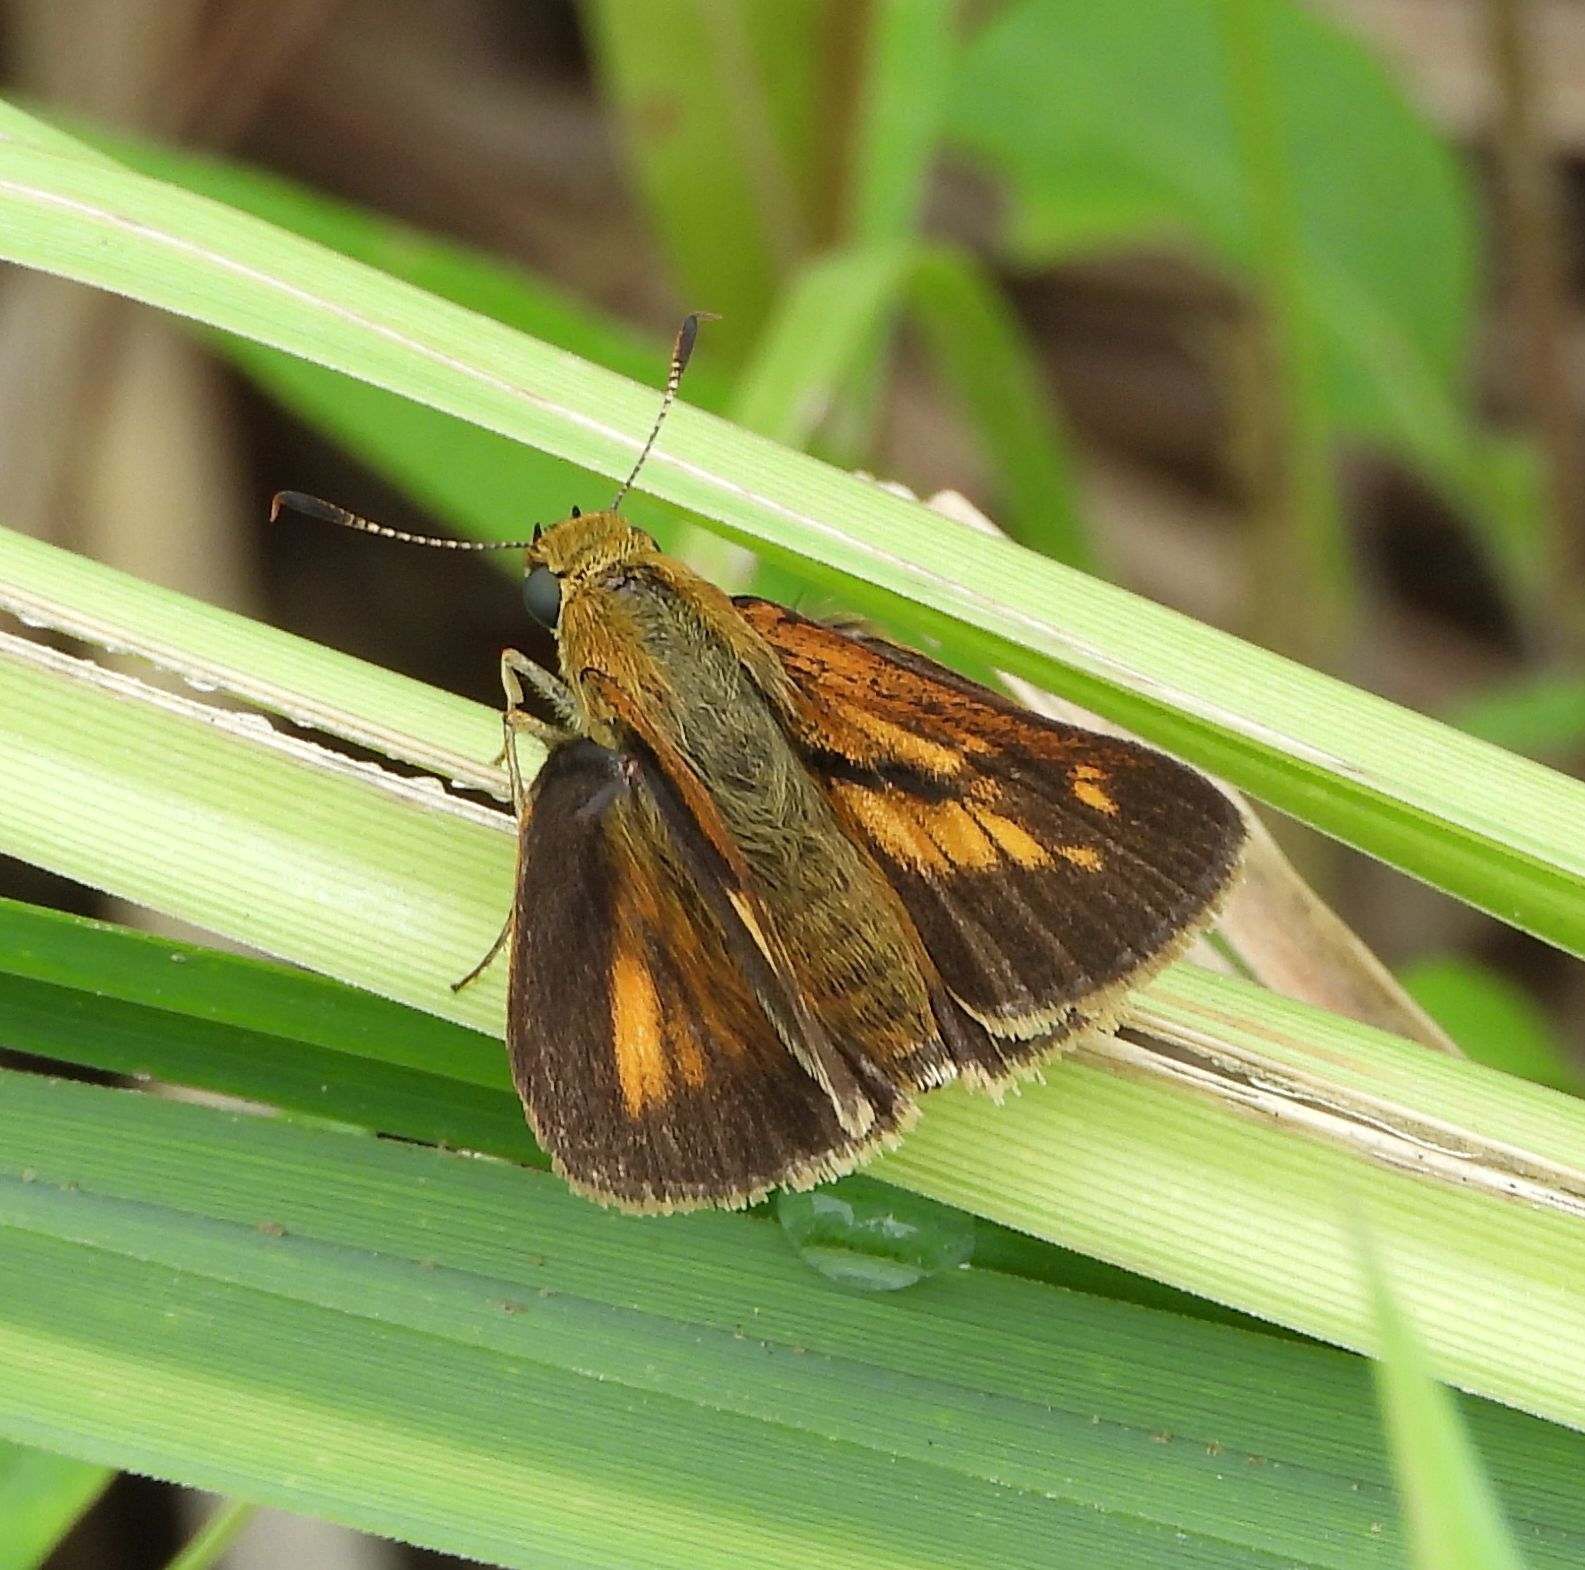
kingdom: Animalia
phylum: Arthropoda
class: Insecta
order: Lepidoptera
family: Hesperiidae
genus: Euphyes
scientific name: Euphyes dion
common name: Dion skipper
